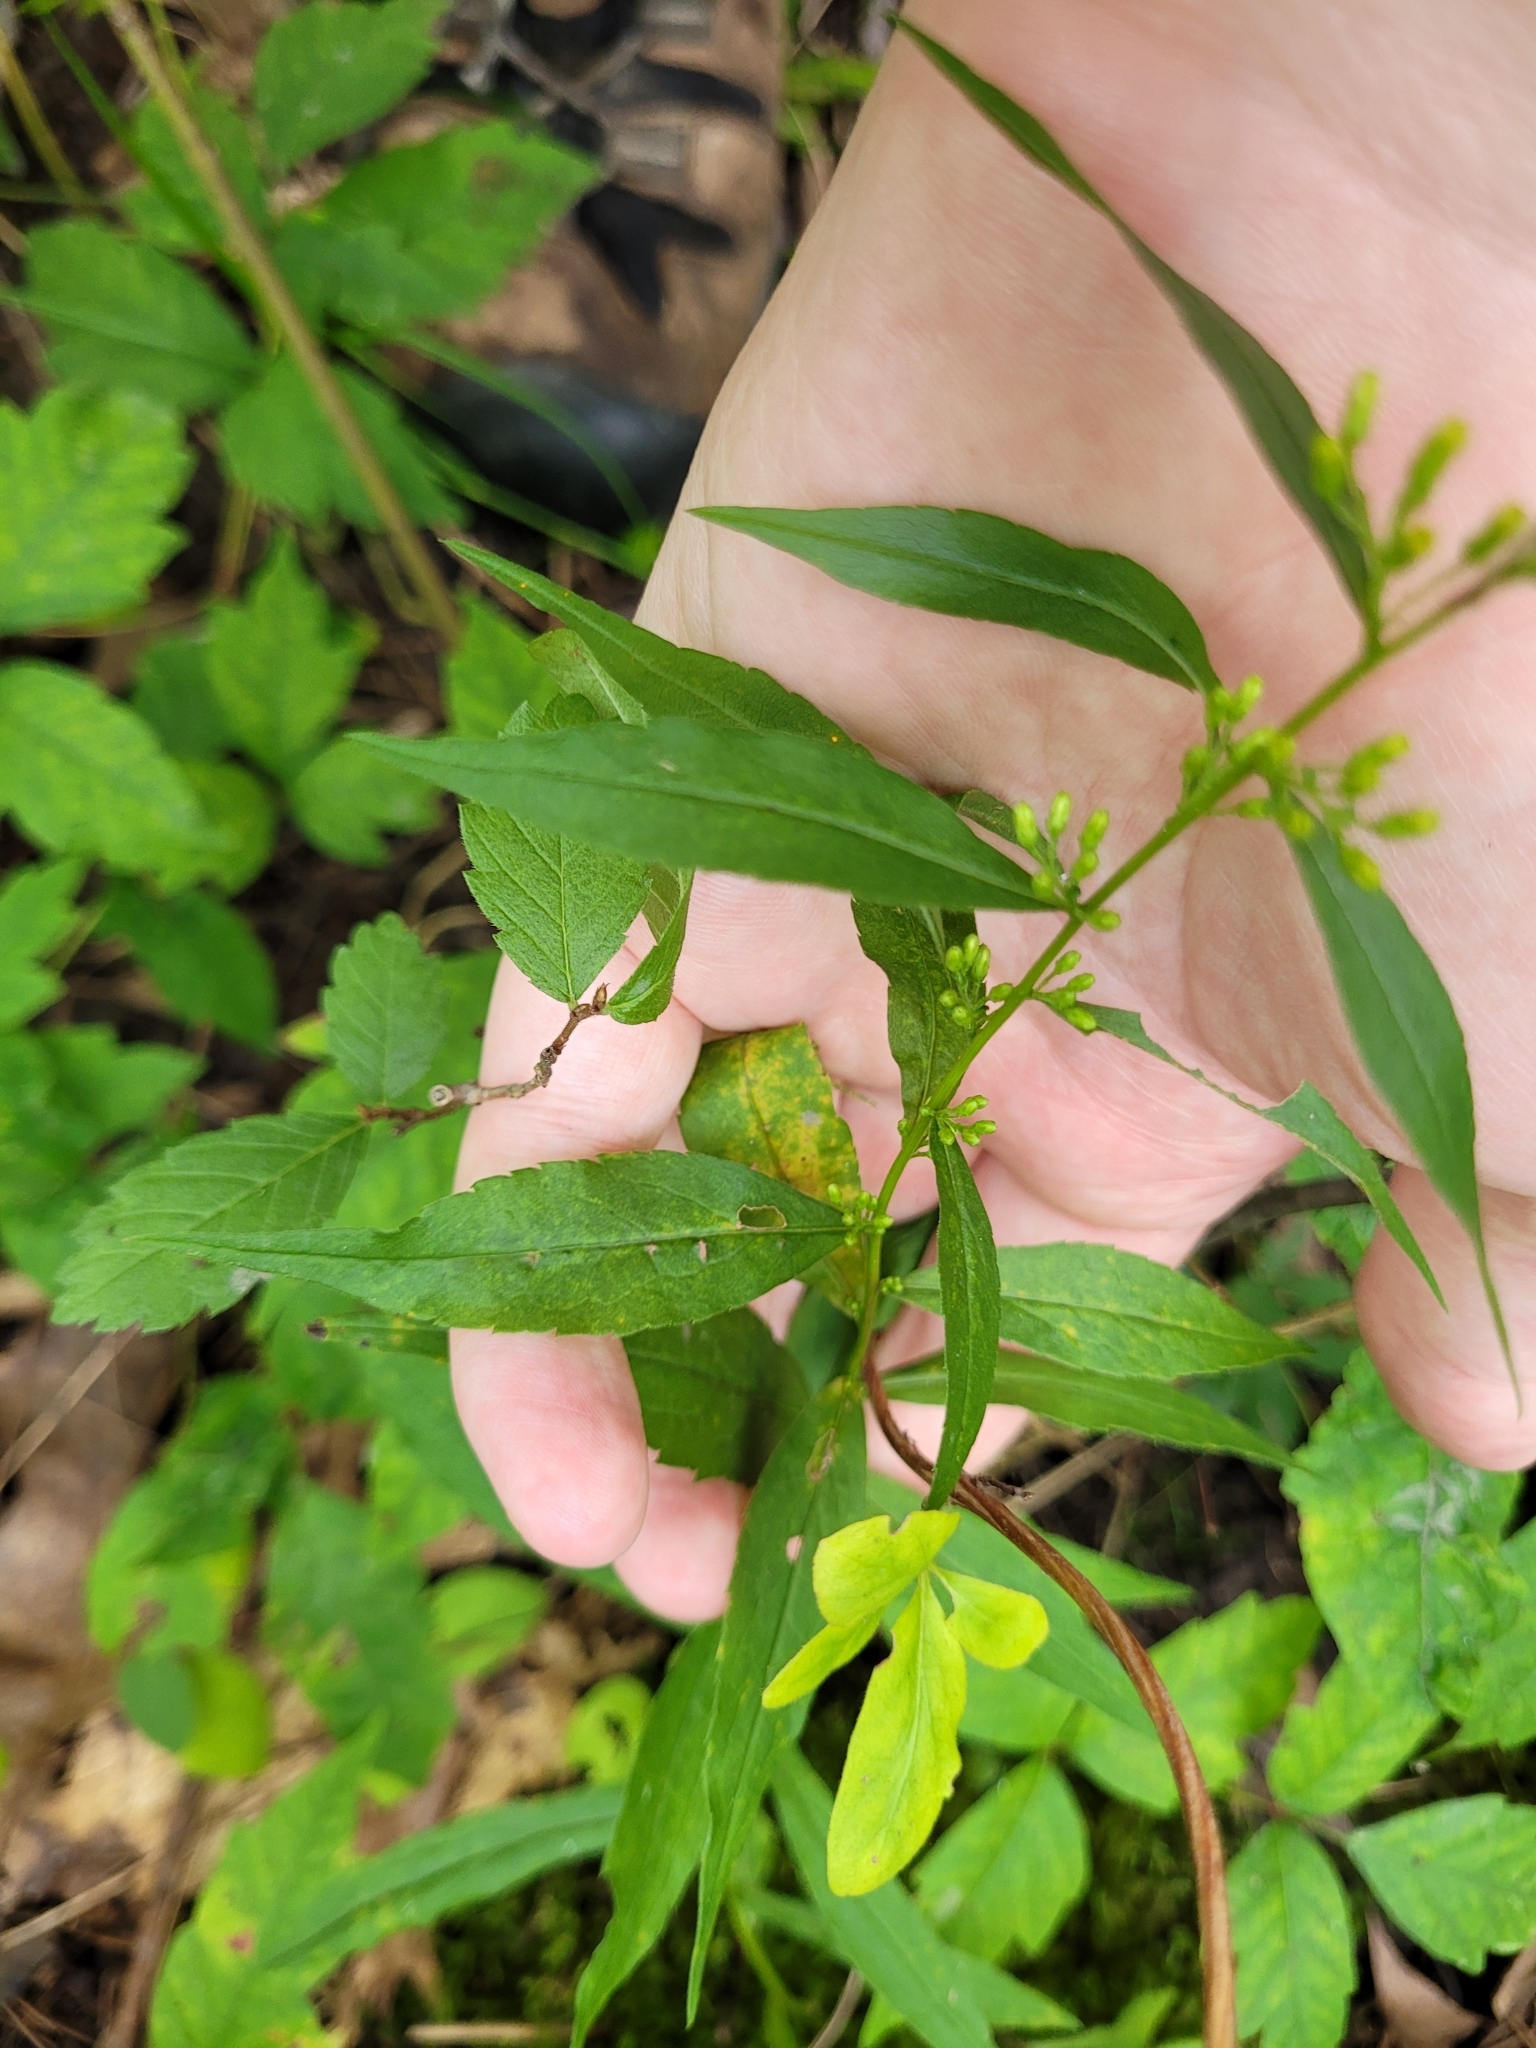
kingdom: Plantae
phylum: Tracheophyta
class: Magnoliopsida
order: Asterales
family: Asteraceae
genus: Solidago
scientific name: Solidago caesia
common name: Woodland goldenrod
